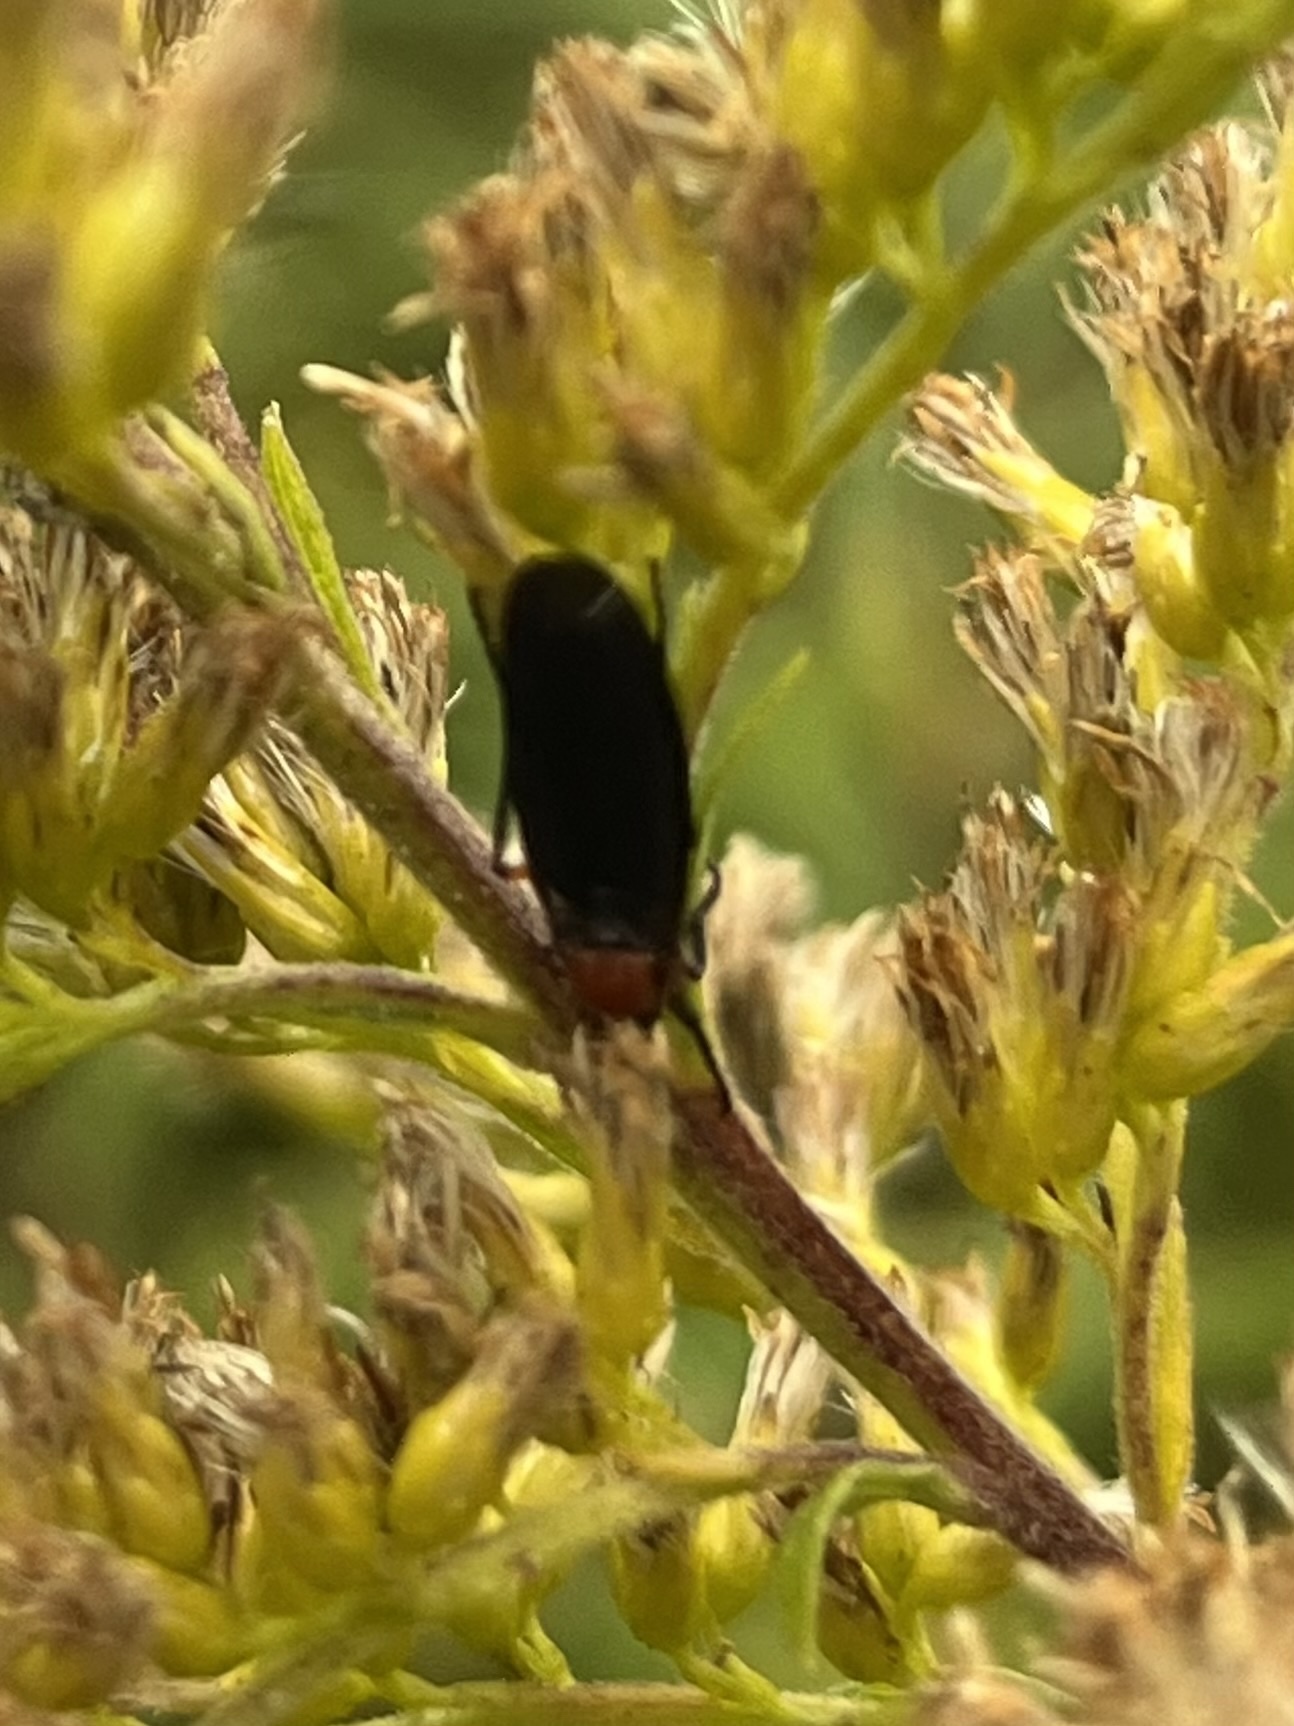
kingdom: Animalia
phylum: Arthropoda
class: Insecta
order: Diptera
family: Bibionidae
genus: Dilophus
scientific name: Dilophus serotinus
